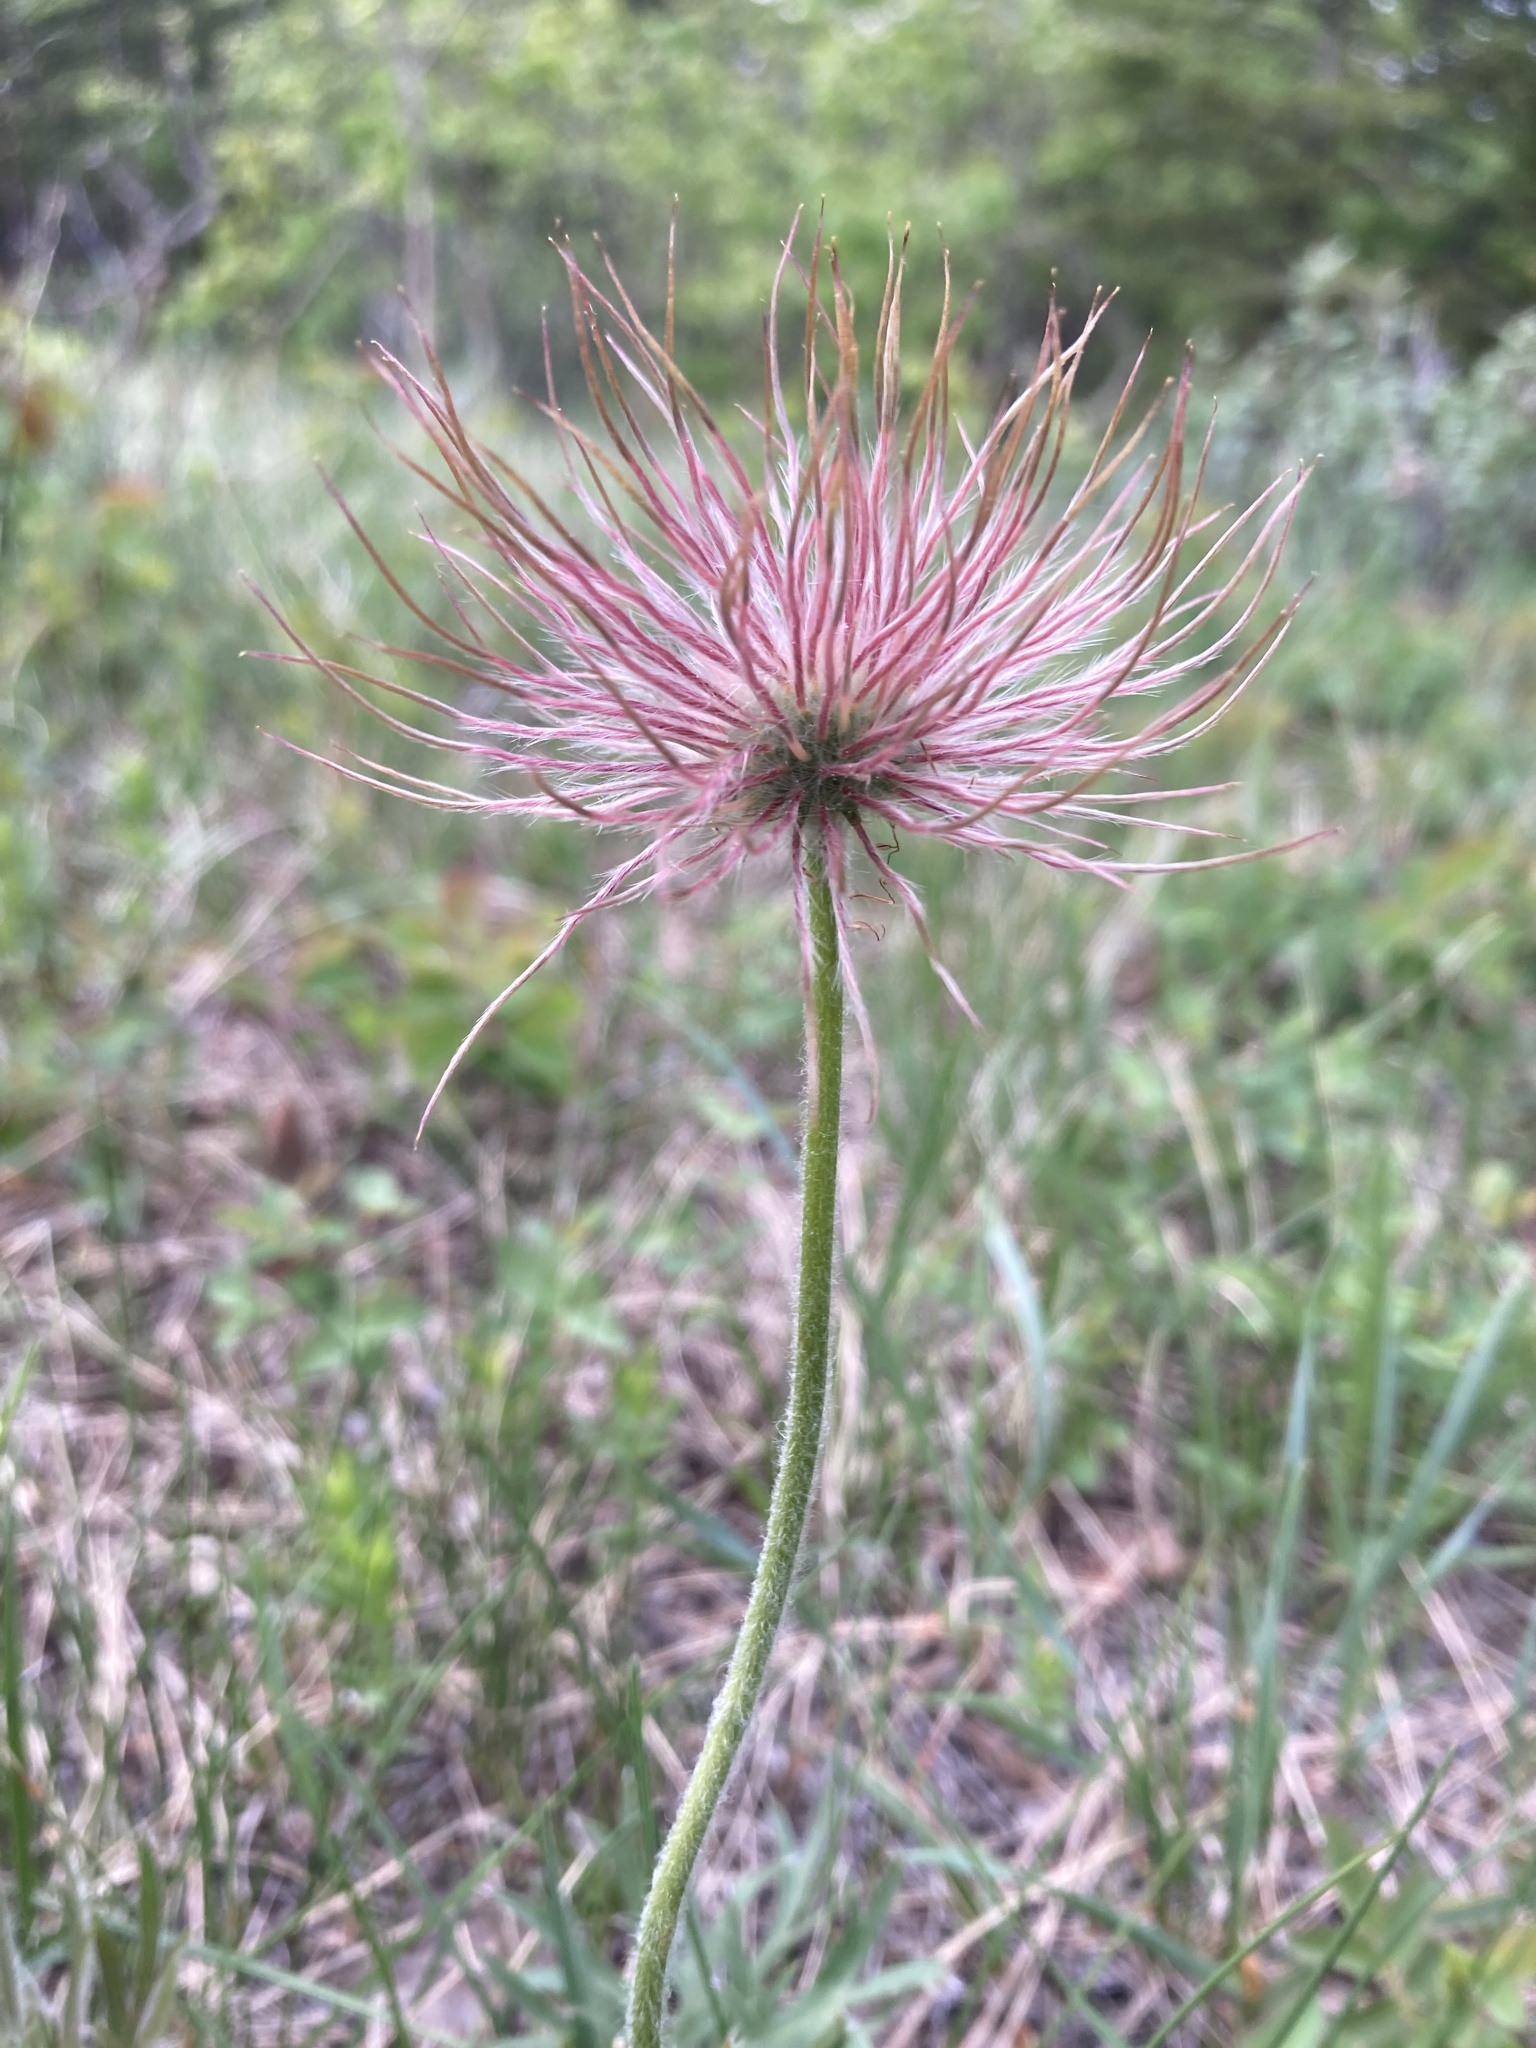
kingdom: Plantae
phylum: Tracheophyta
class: Magnoliopsida
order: Ranunculales
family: Ranunculaceae
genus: Pulsatilla
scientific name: Pulsatilla nuttalliana
